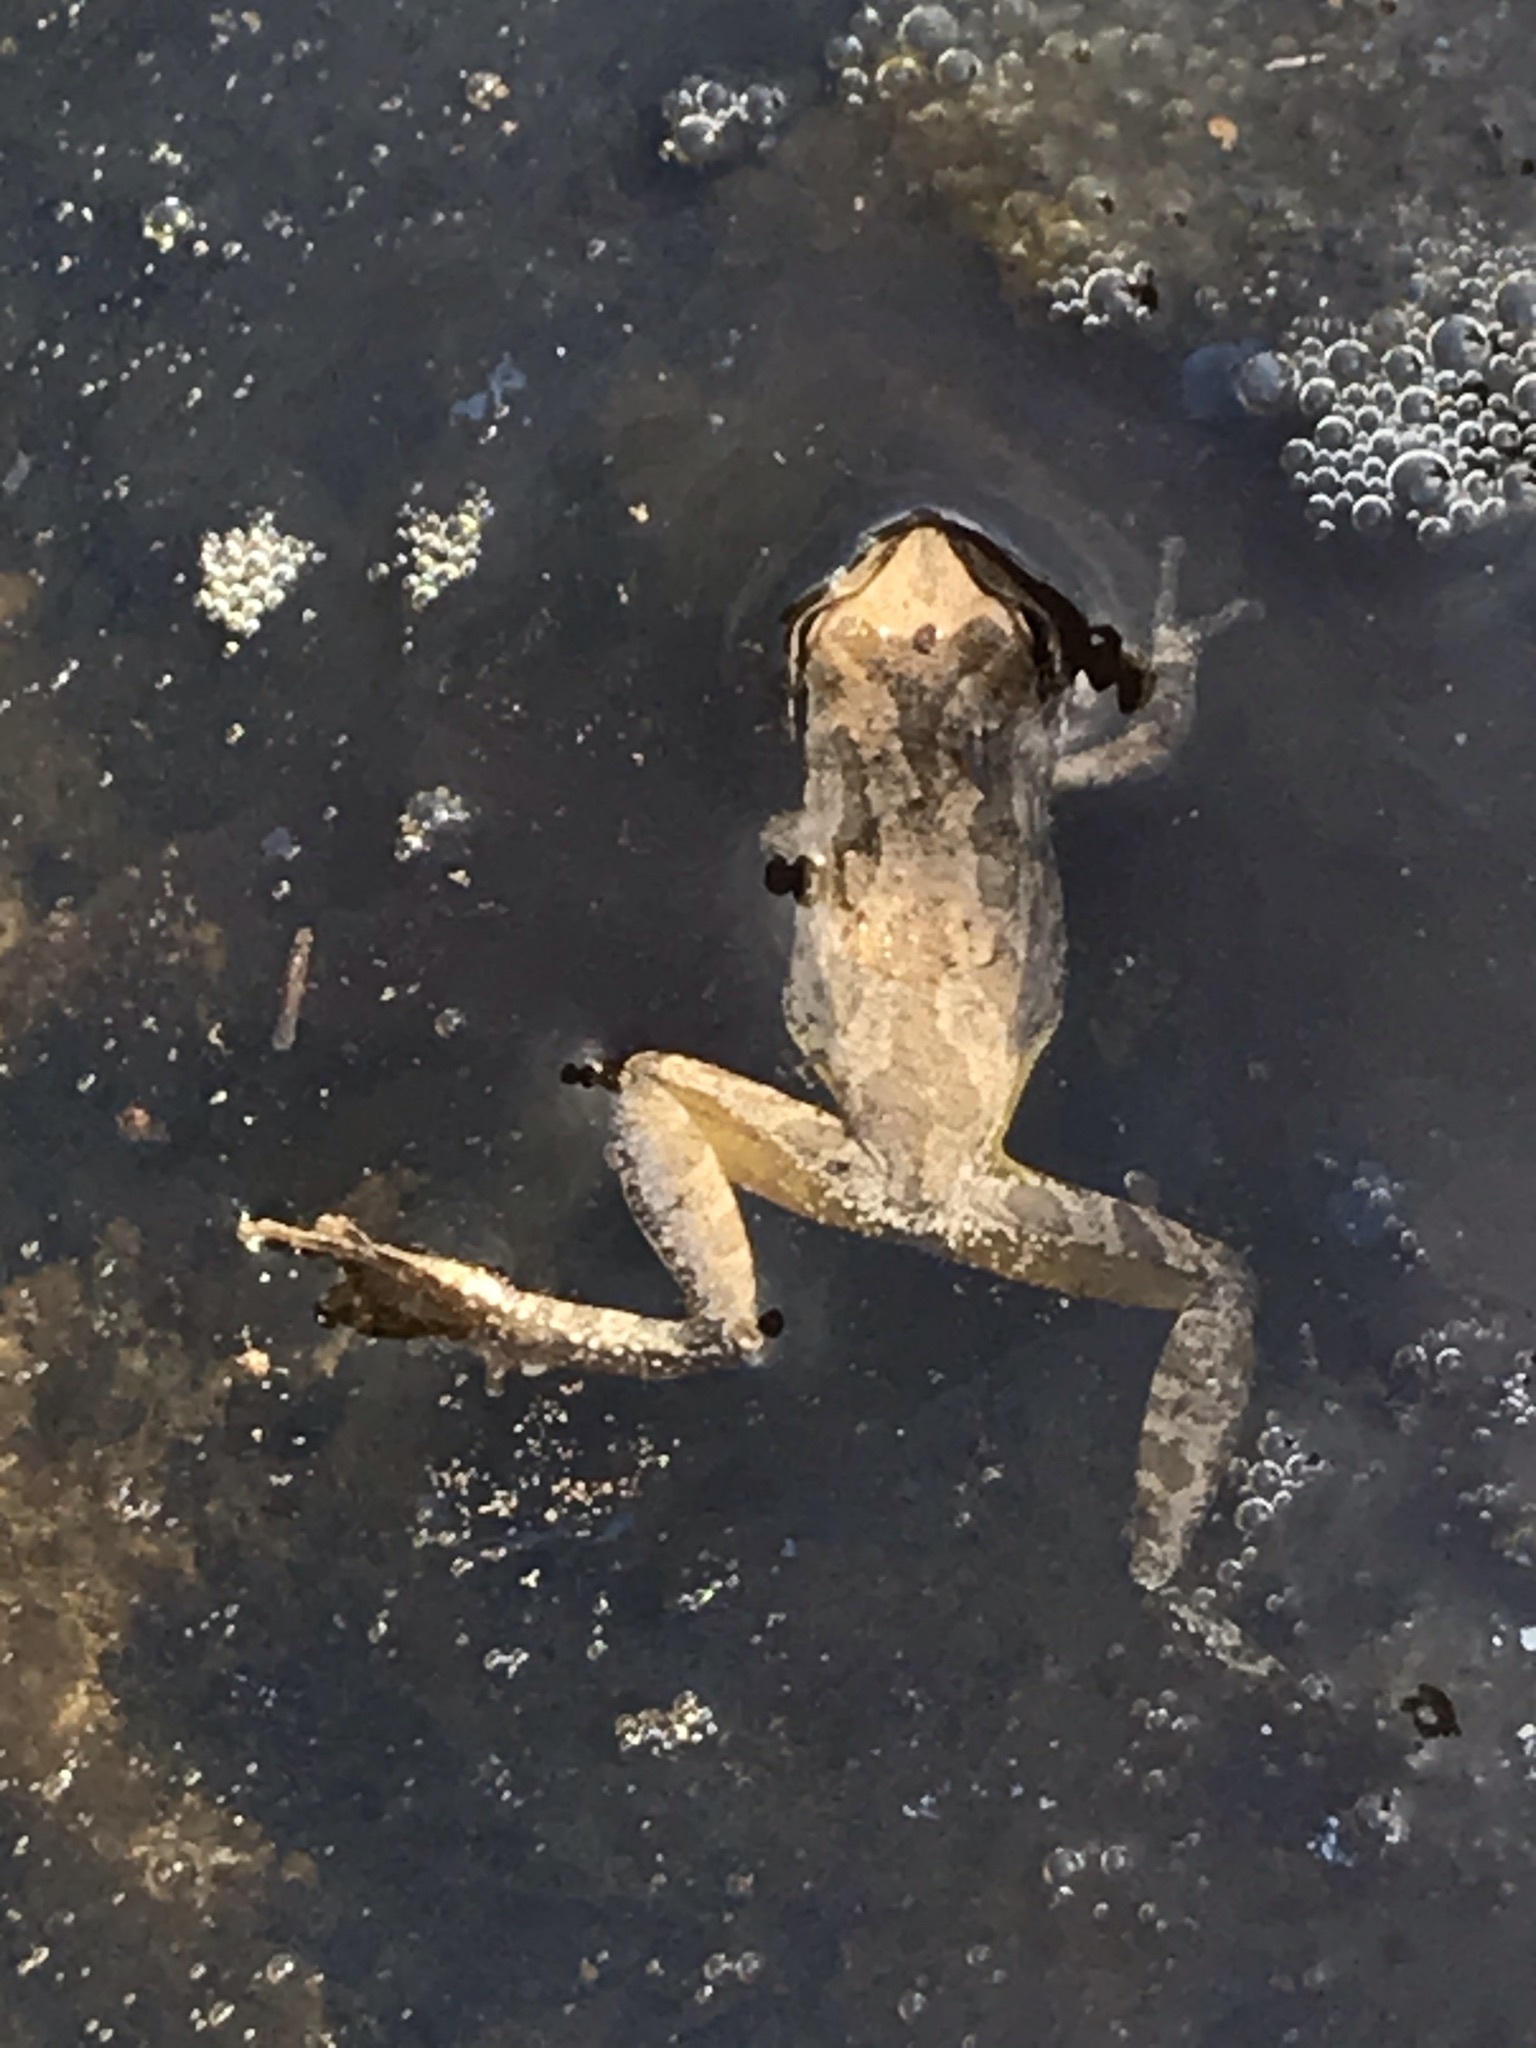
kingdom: Animalia
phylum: Chordata
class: Amphibia
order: Anura
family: Hylidae
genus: Pseudacris
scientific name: Pseudacris regilla
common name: Pacific chorus frog
